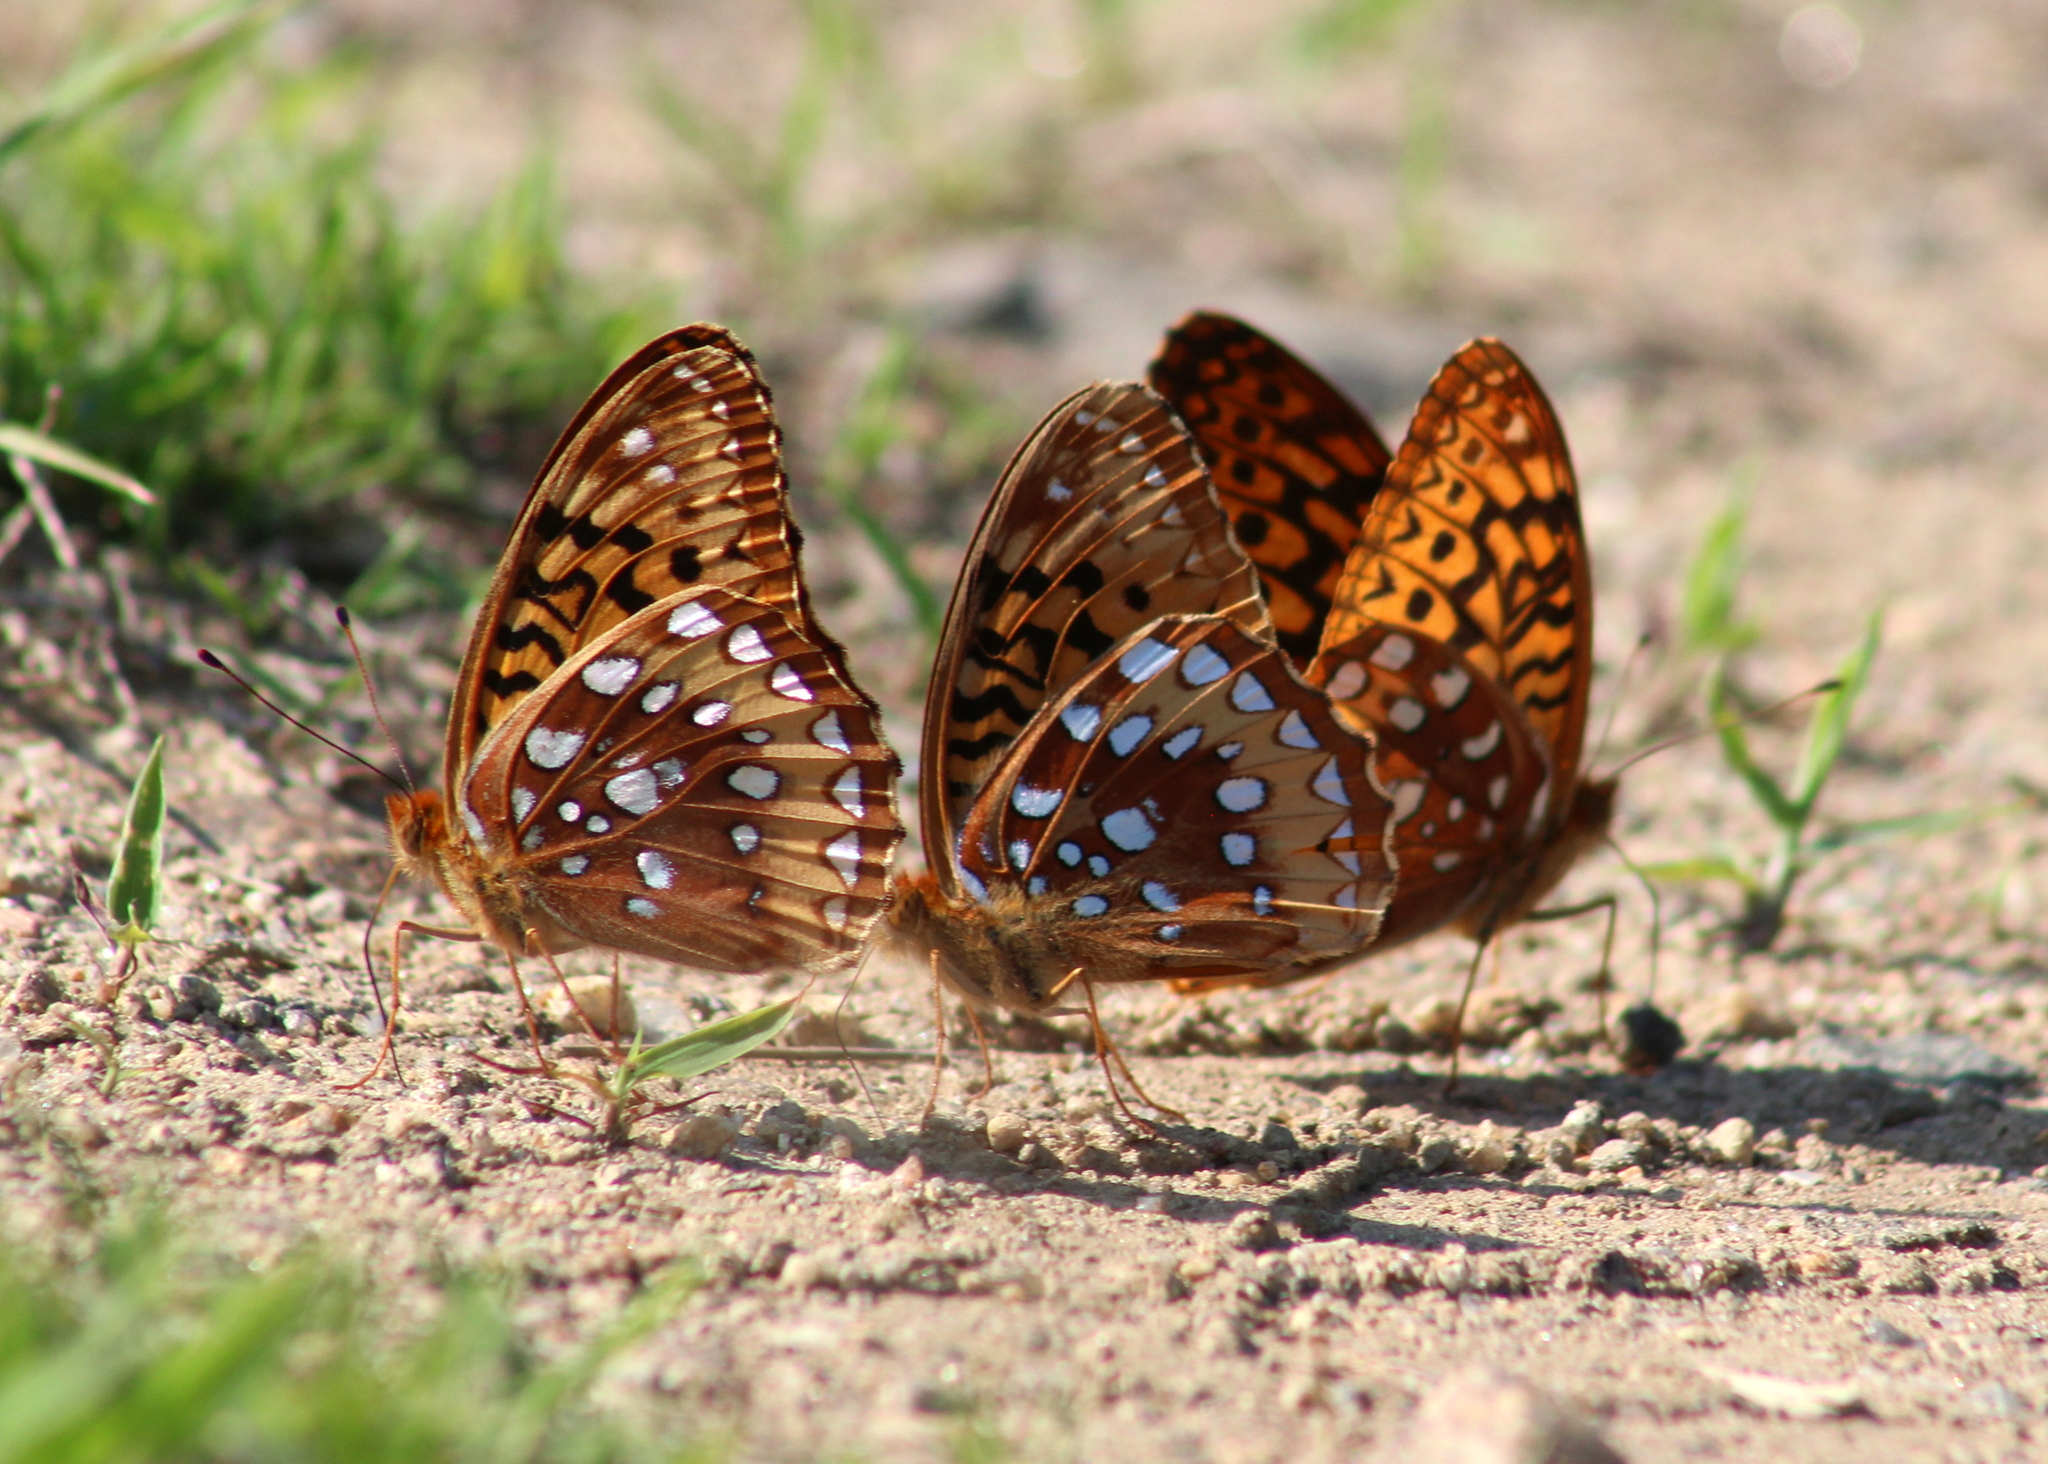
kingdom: Animalia
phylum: Arthropoda
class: Insecta
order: Lepidoptera
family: Nymphalidae
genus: Speyeria
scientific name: Speyeria cybele
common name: Great spangled fritillary
